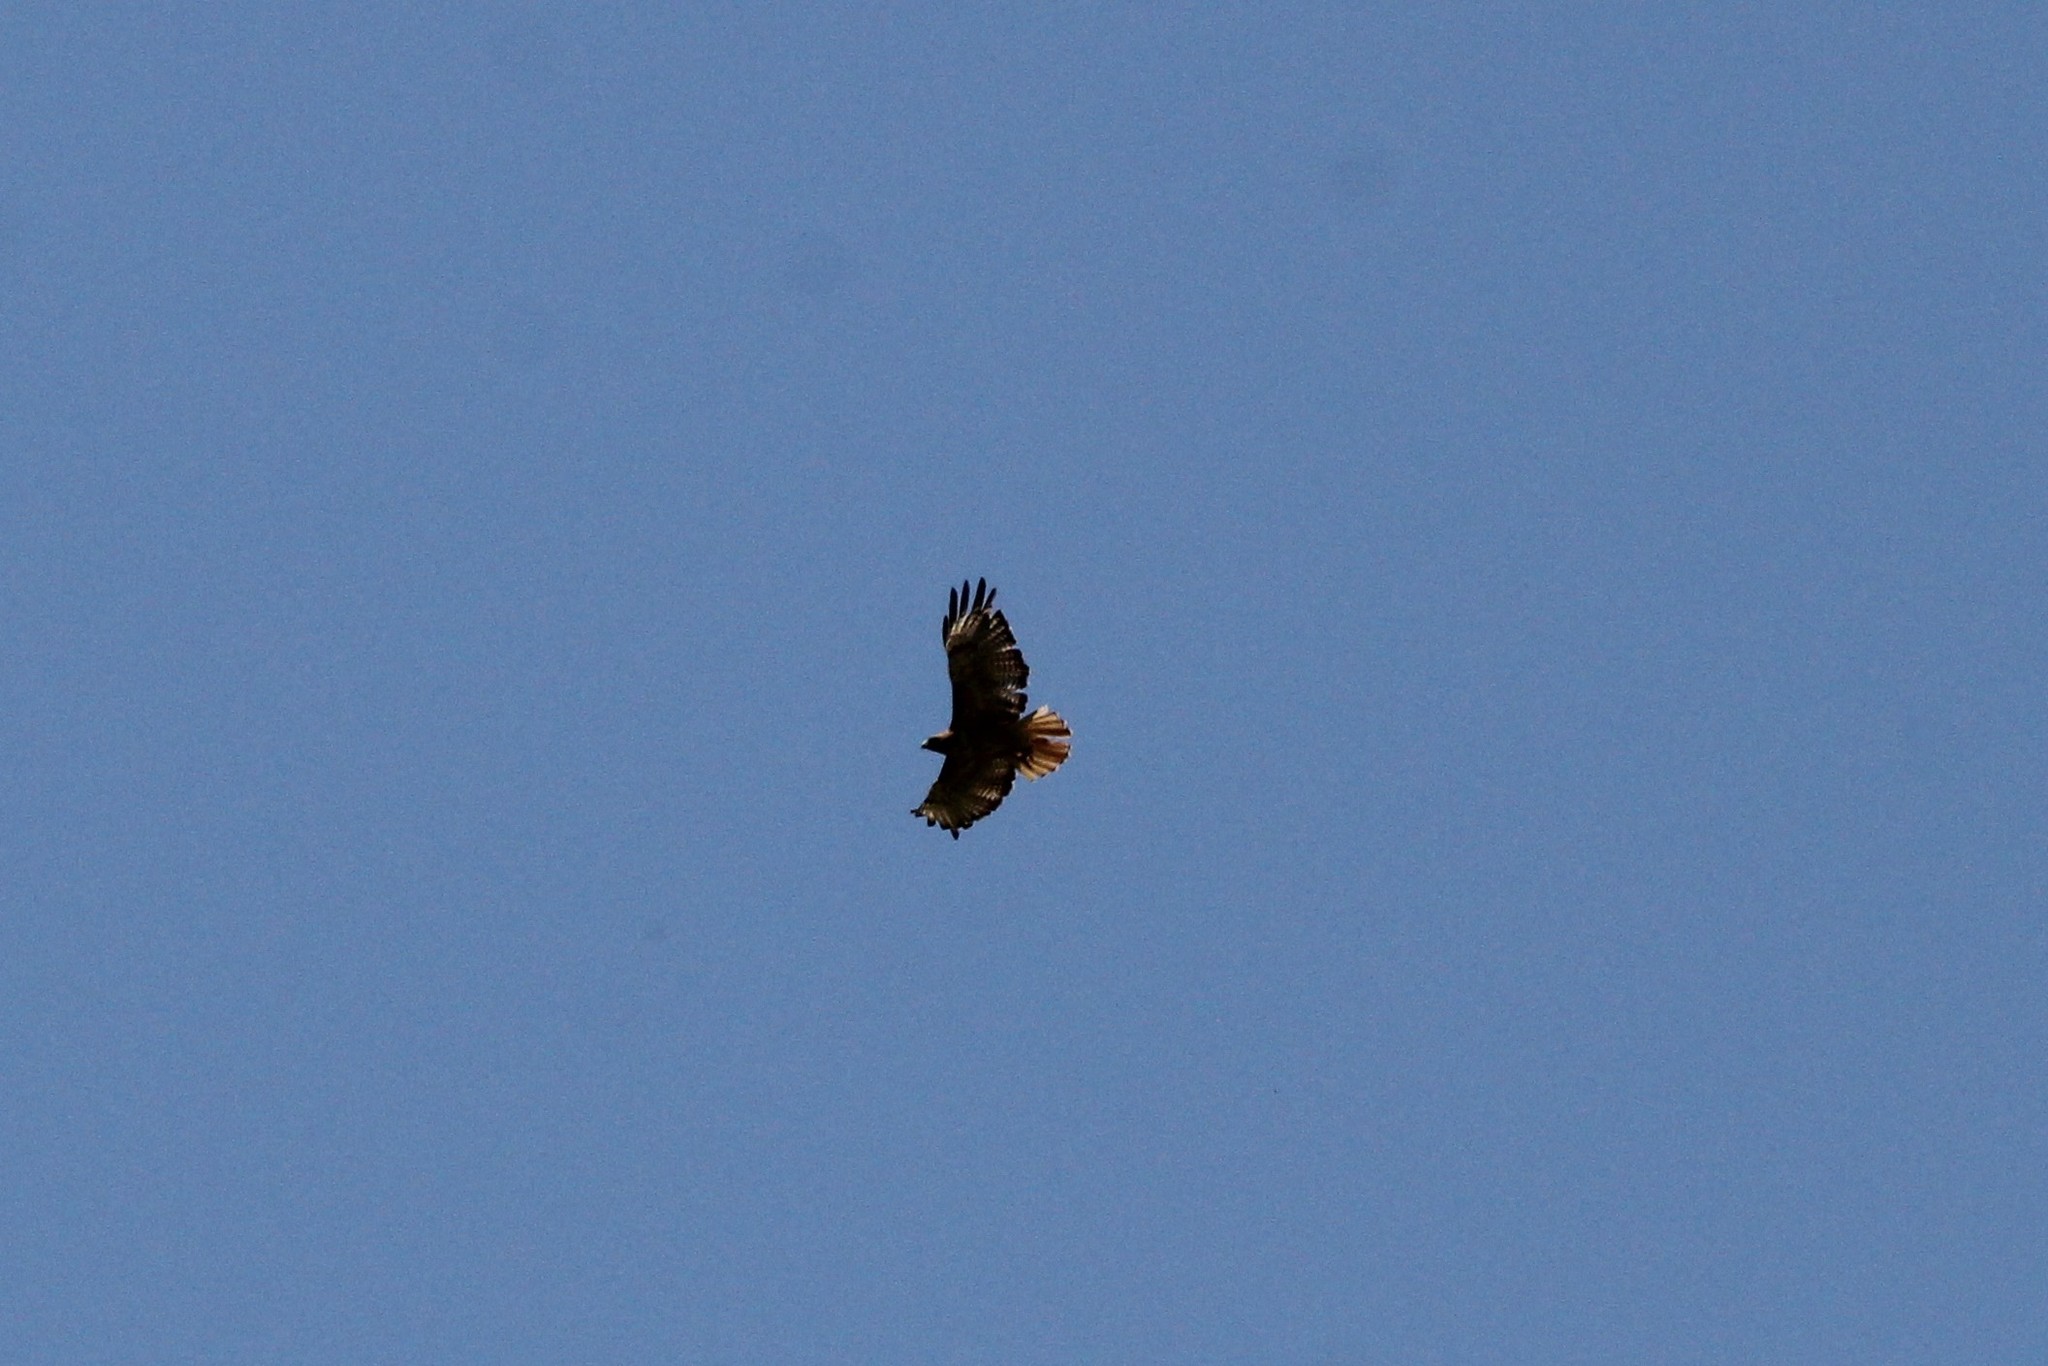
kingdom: Animalia
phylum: Chordata
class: Aves
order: Accipitriformes
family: Accipitridae
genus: Buteo
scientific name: Buteo jamaicensis
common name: Red-tailed hawk
